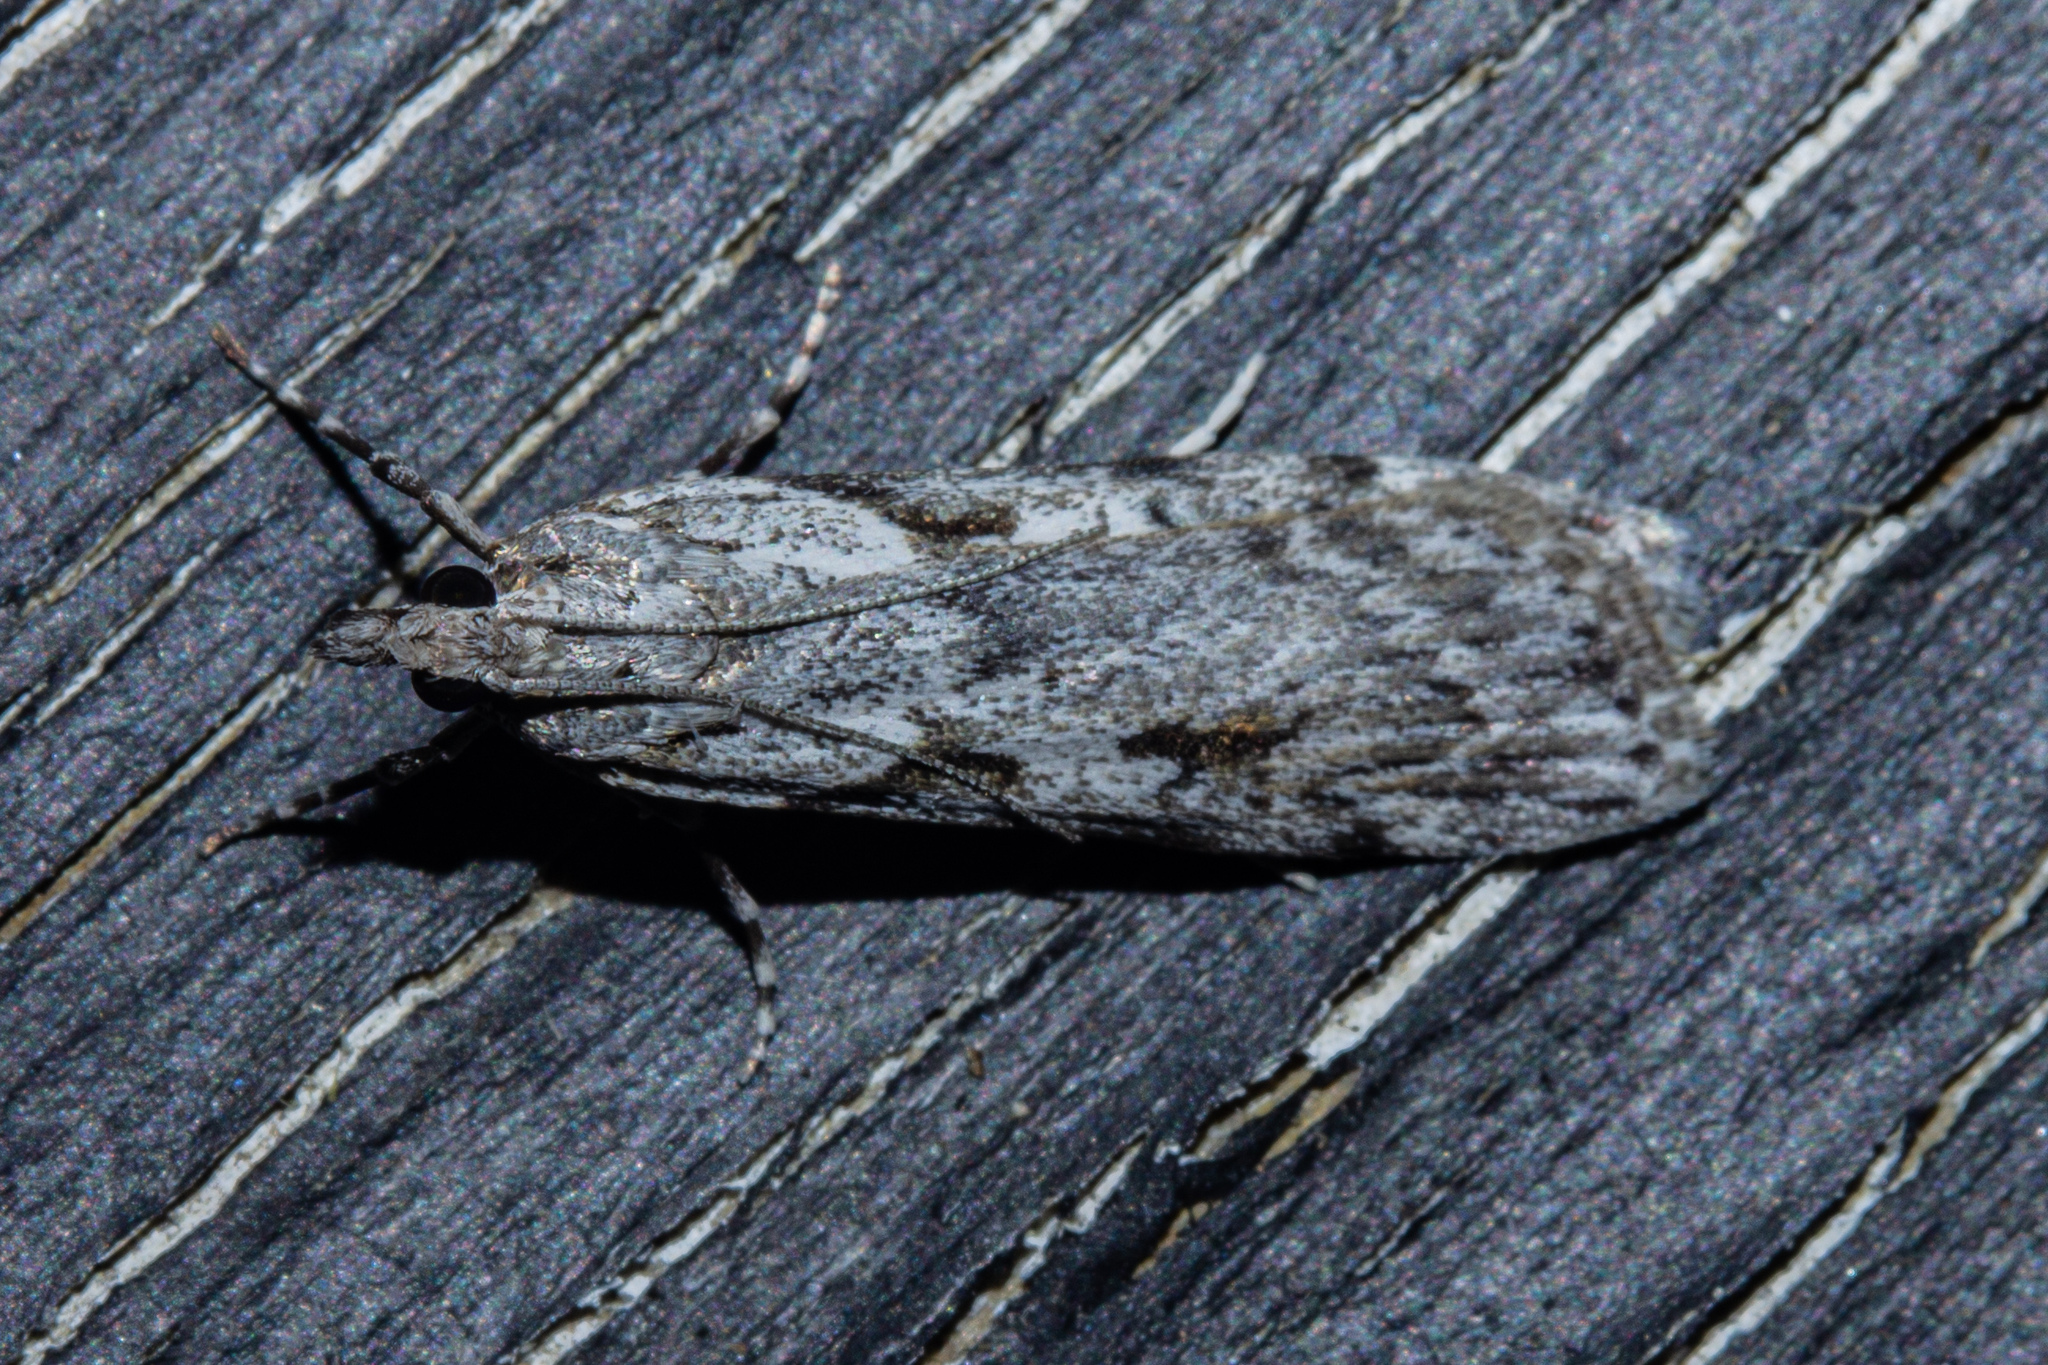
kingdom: Animalia
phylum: Arthropoda
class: Insecta
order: Lepidoptera
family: Crambidae
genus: Scoparia
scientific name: Scoparia halopis
